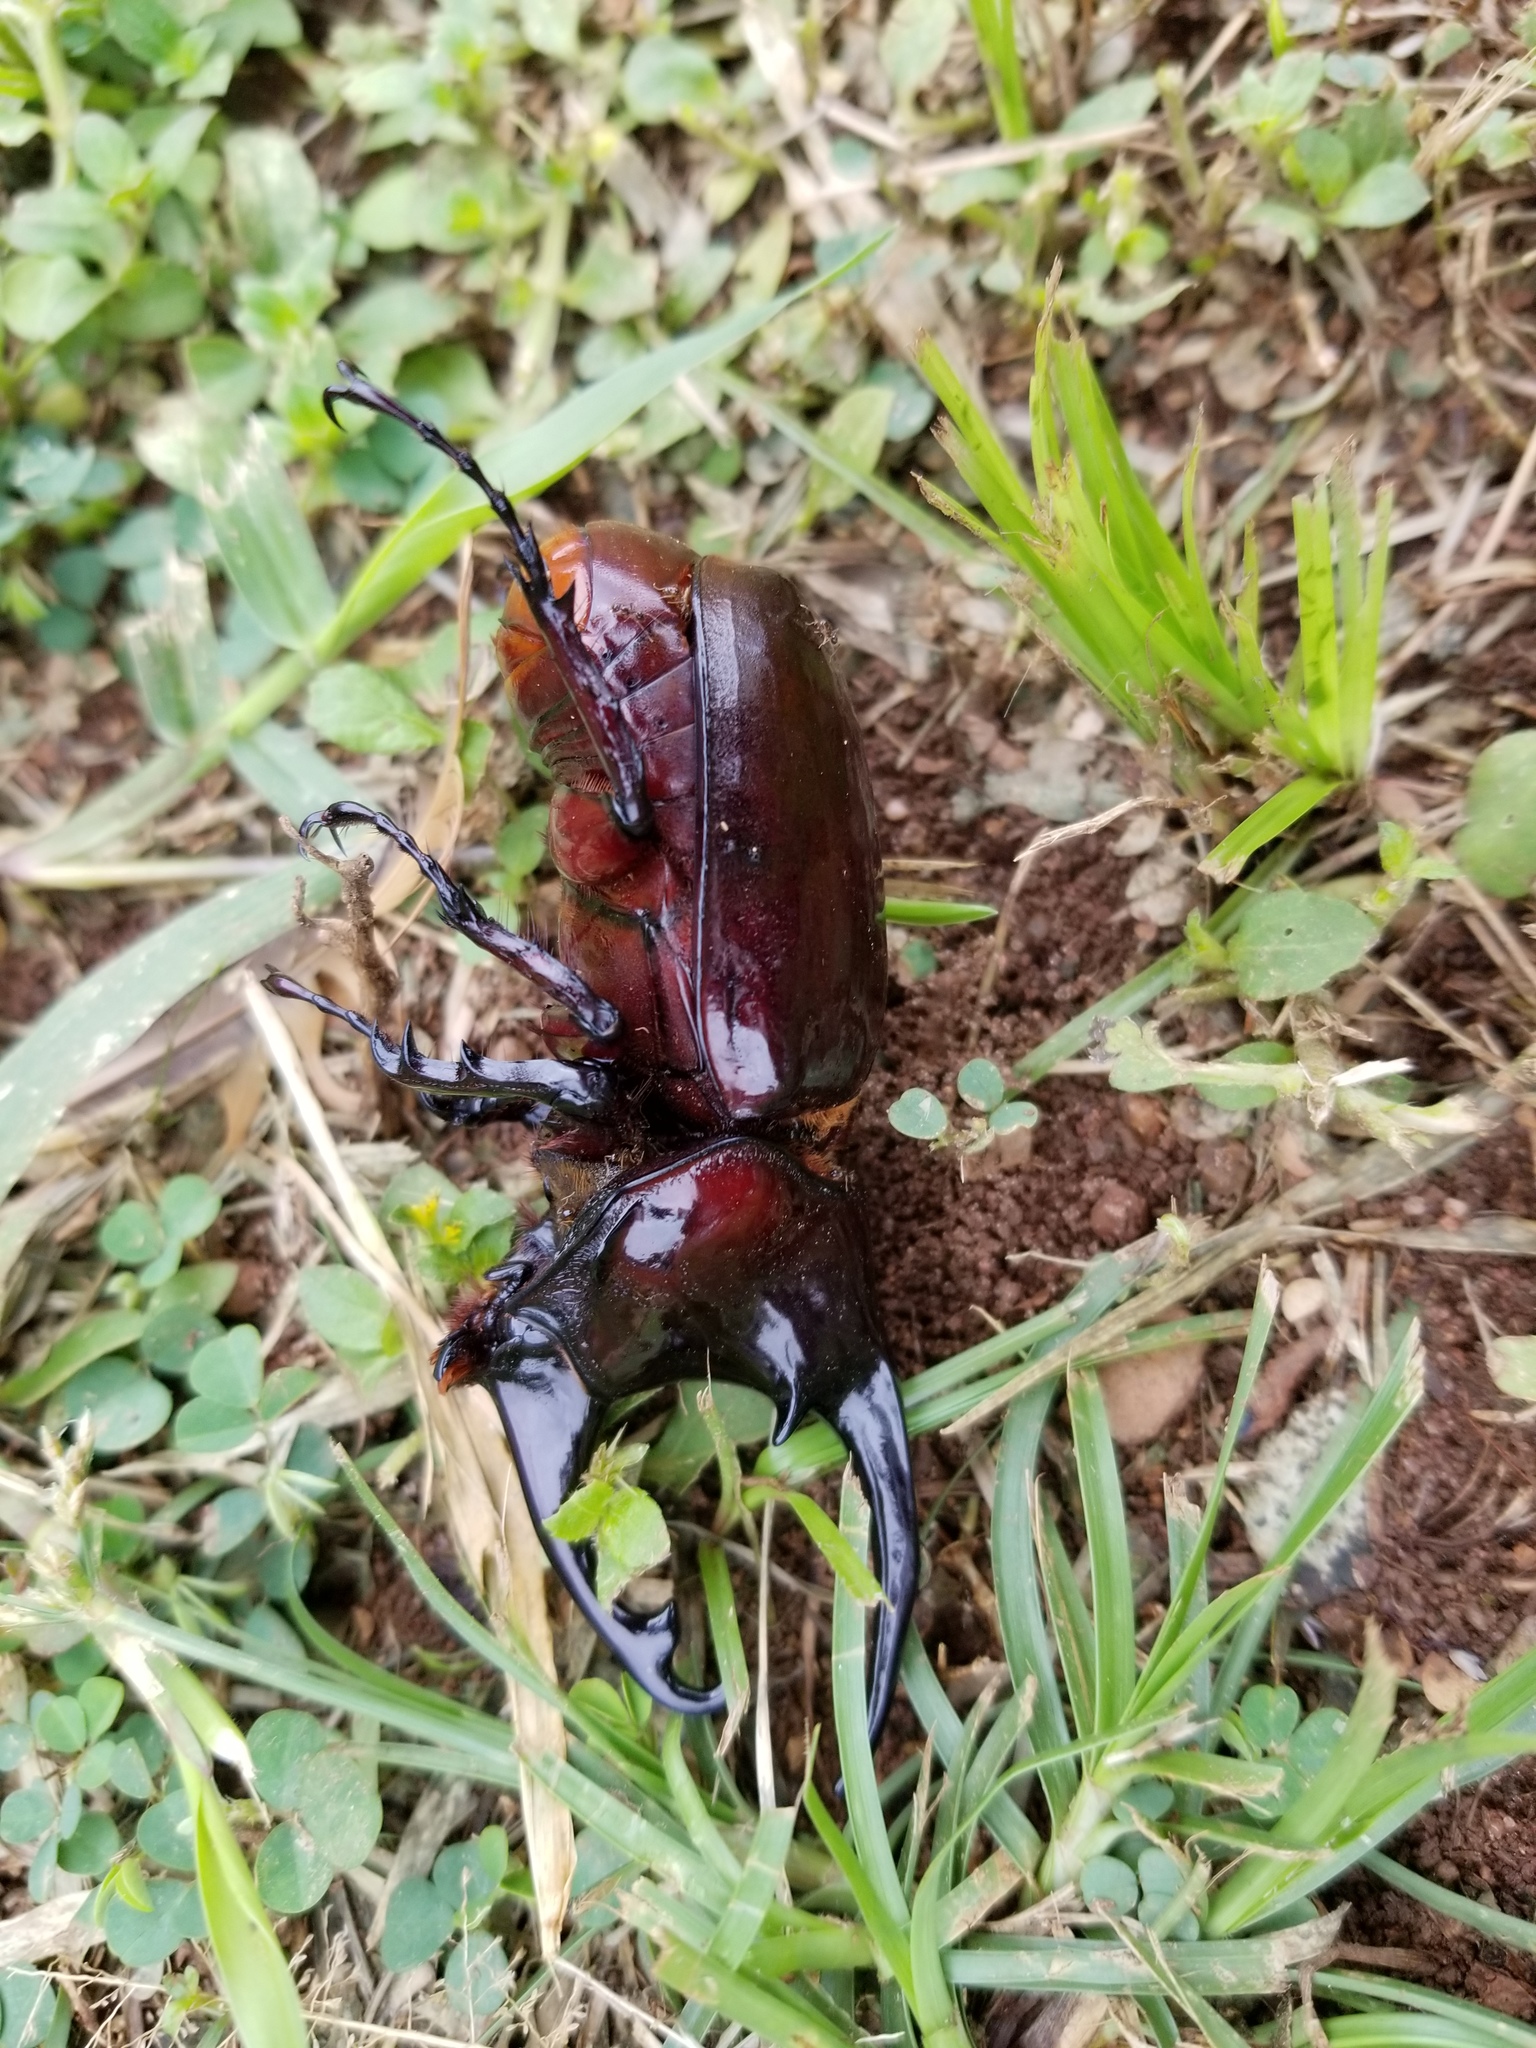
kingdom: Animalia
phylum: Arthropoda
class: Insecta
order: Coleoptera
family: Scarabaeidae
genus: Augosoma
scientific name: Augosoma centaurus
